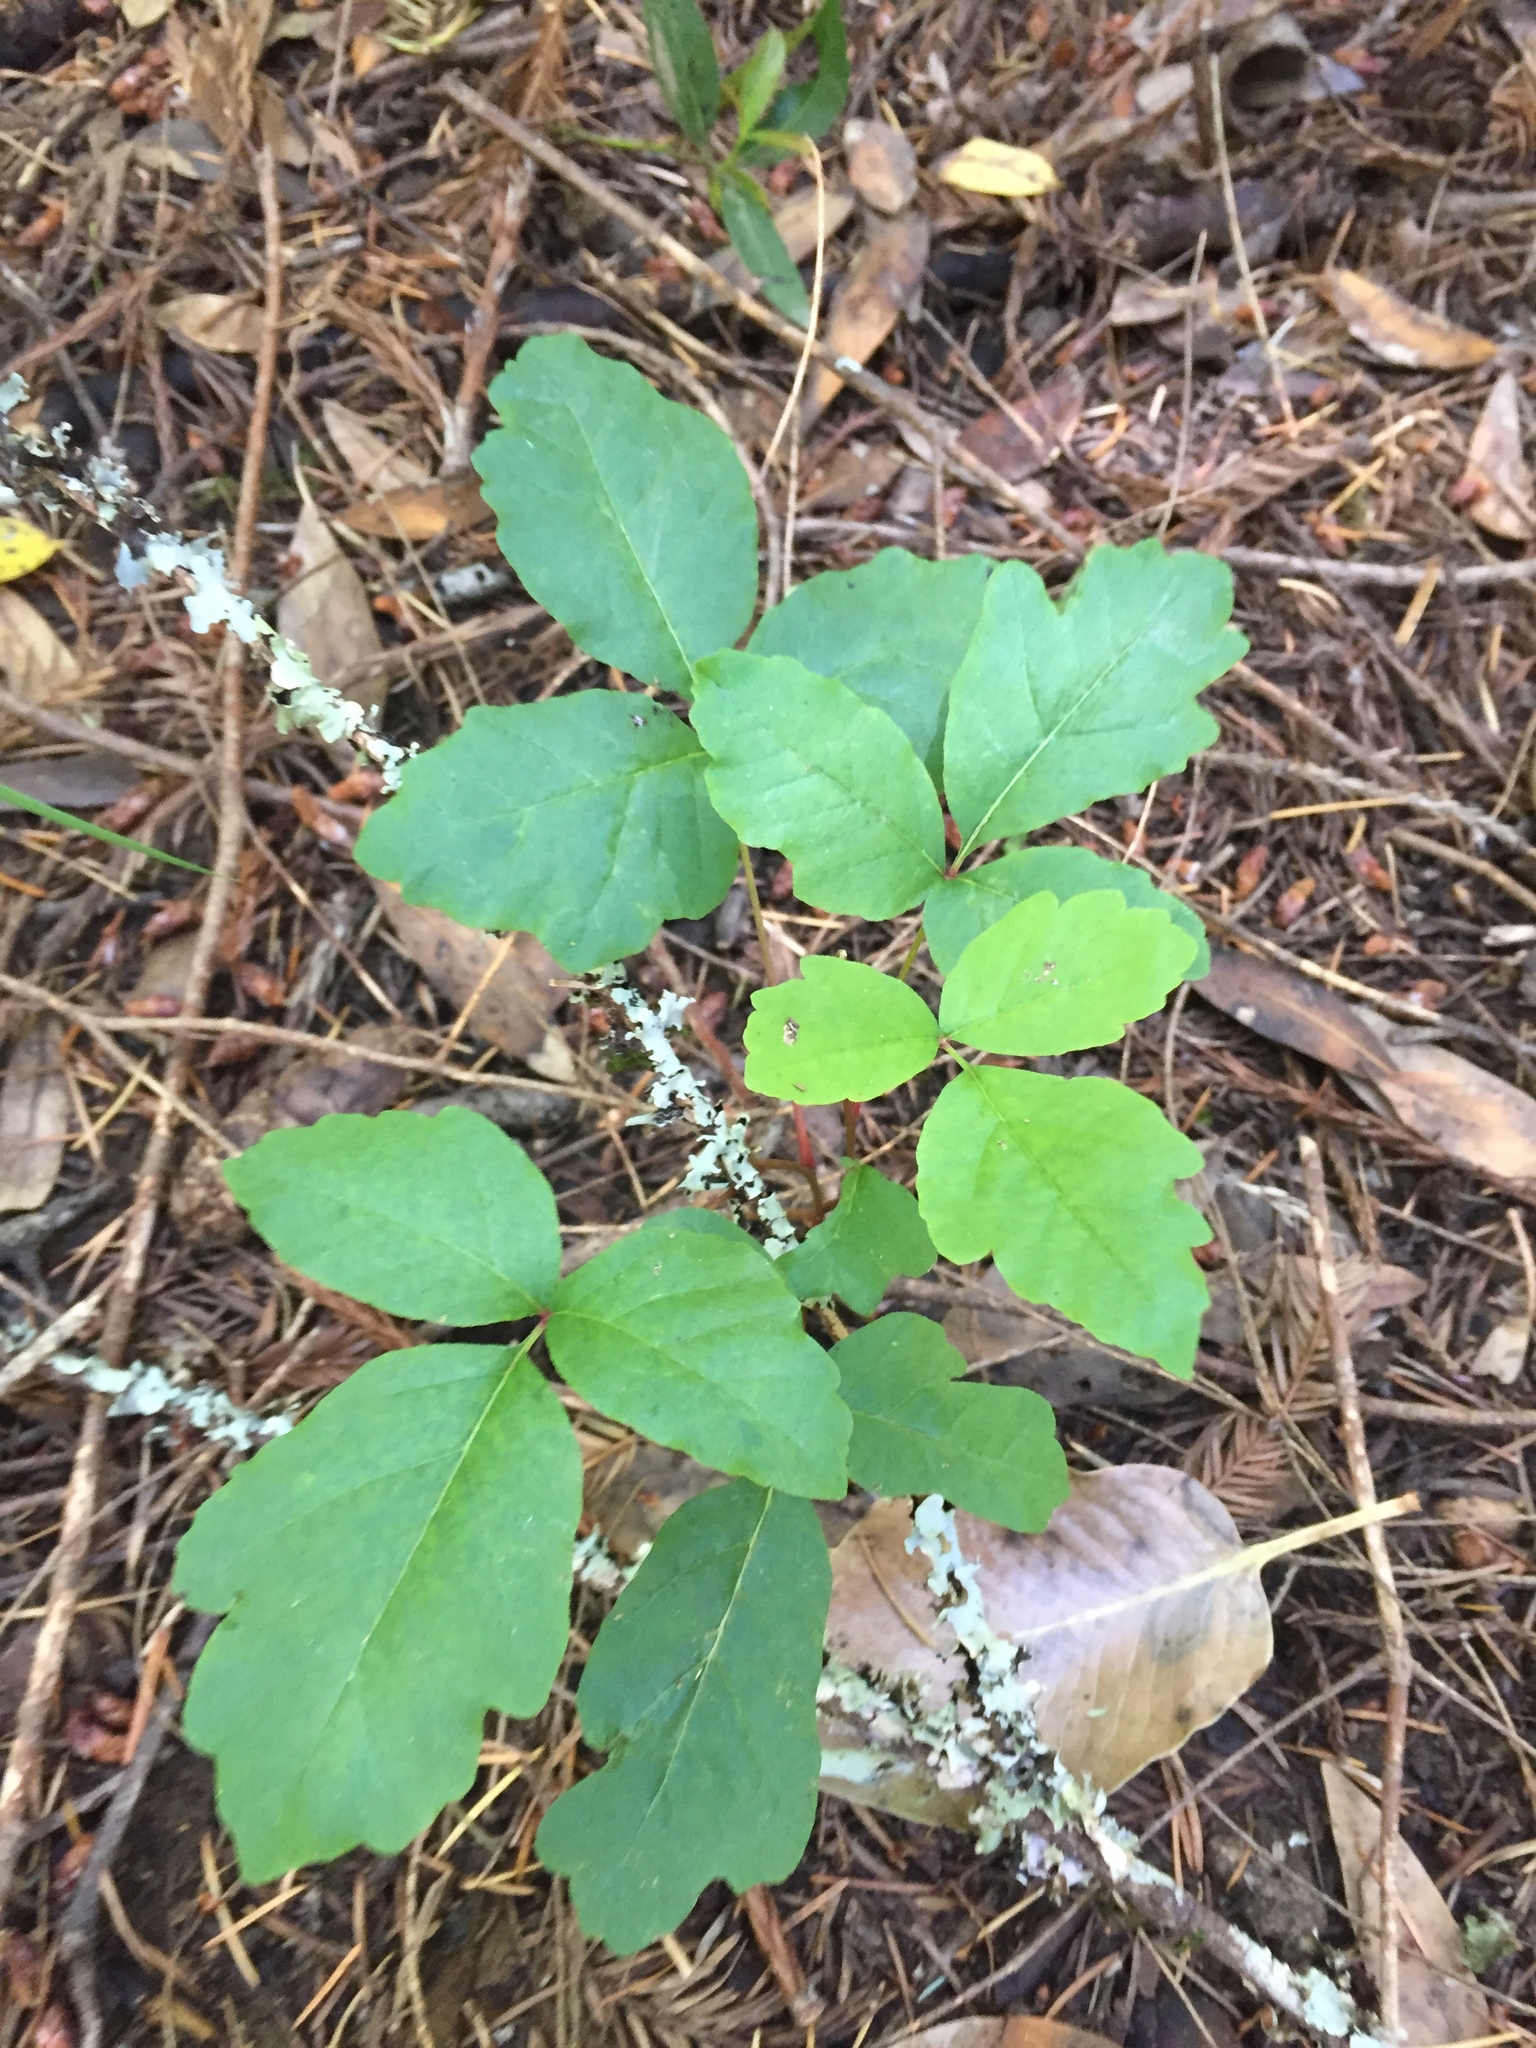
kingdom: Plantae
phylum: Tracheophyta
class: Magnoliopsida
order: Sapindales
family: Anacardiaceae
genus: Toxicodendron
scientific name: Toxicodendron diversilobum
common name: Pacific poison-oak
